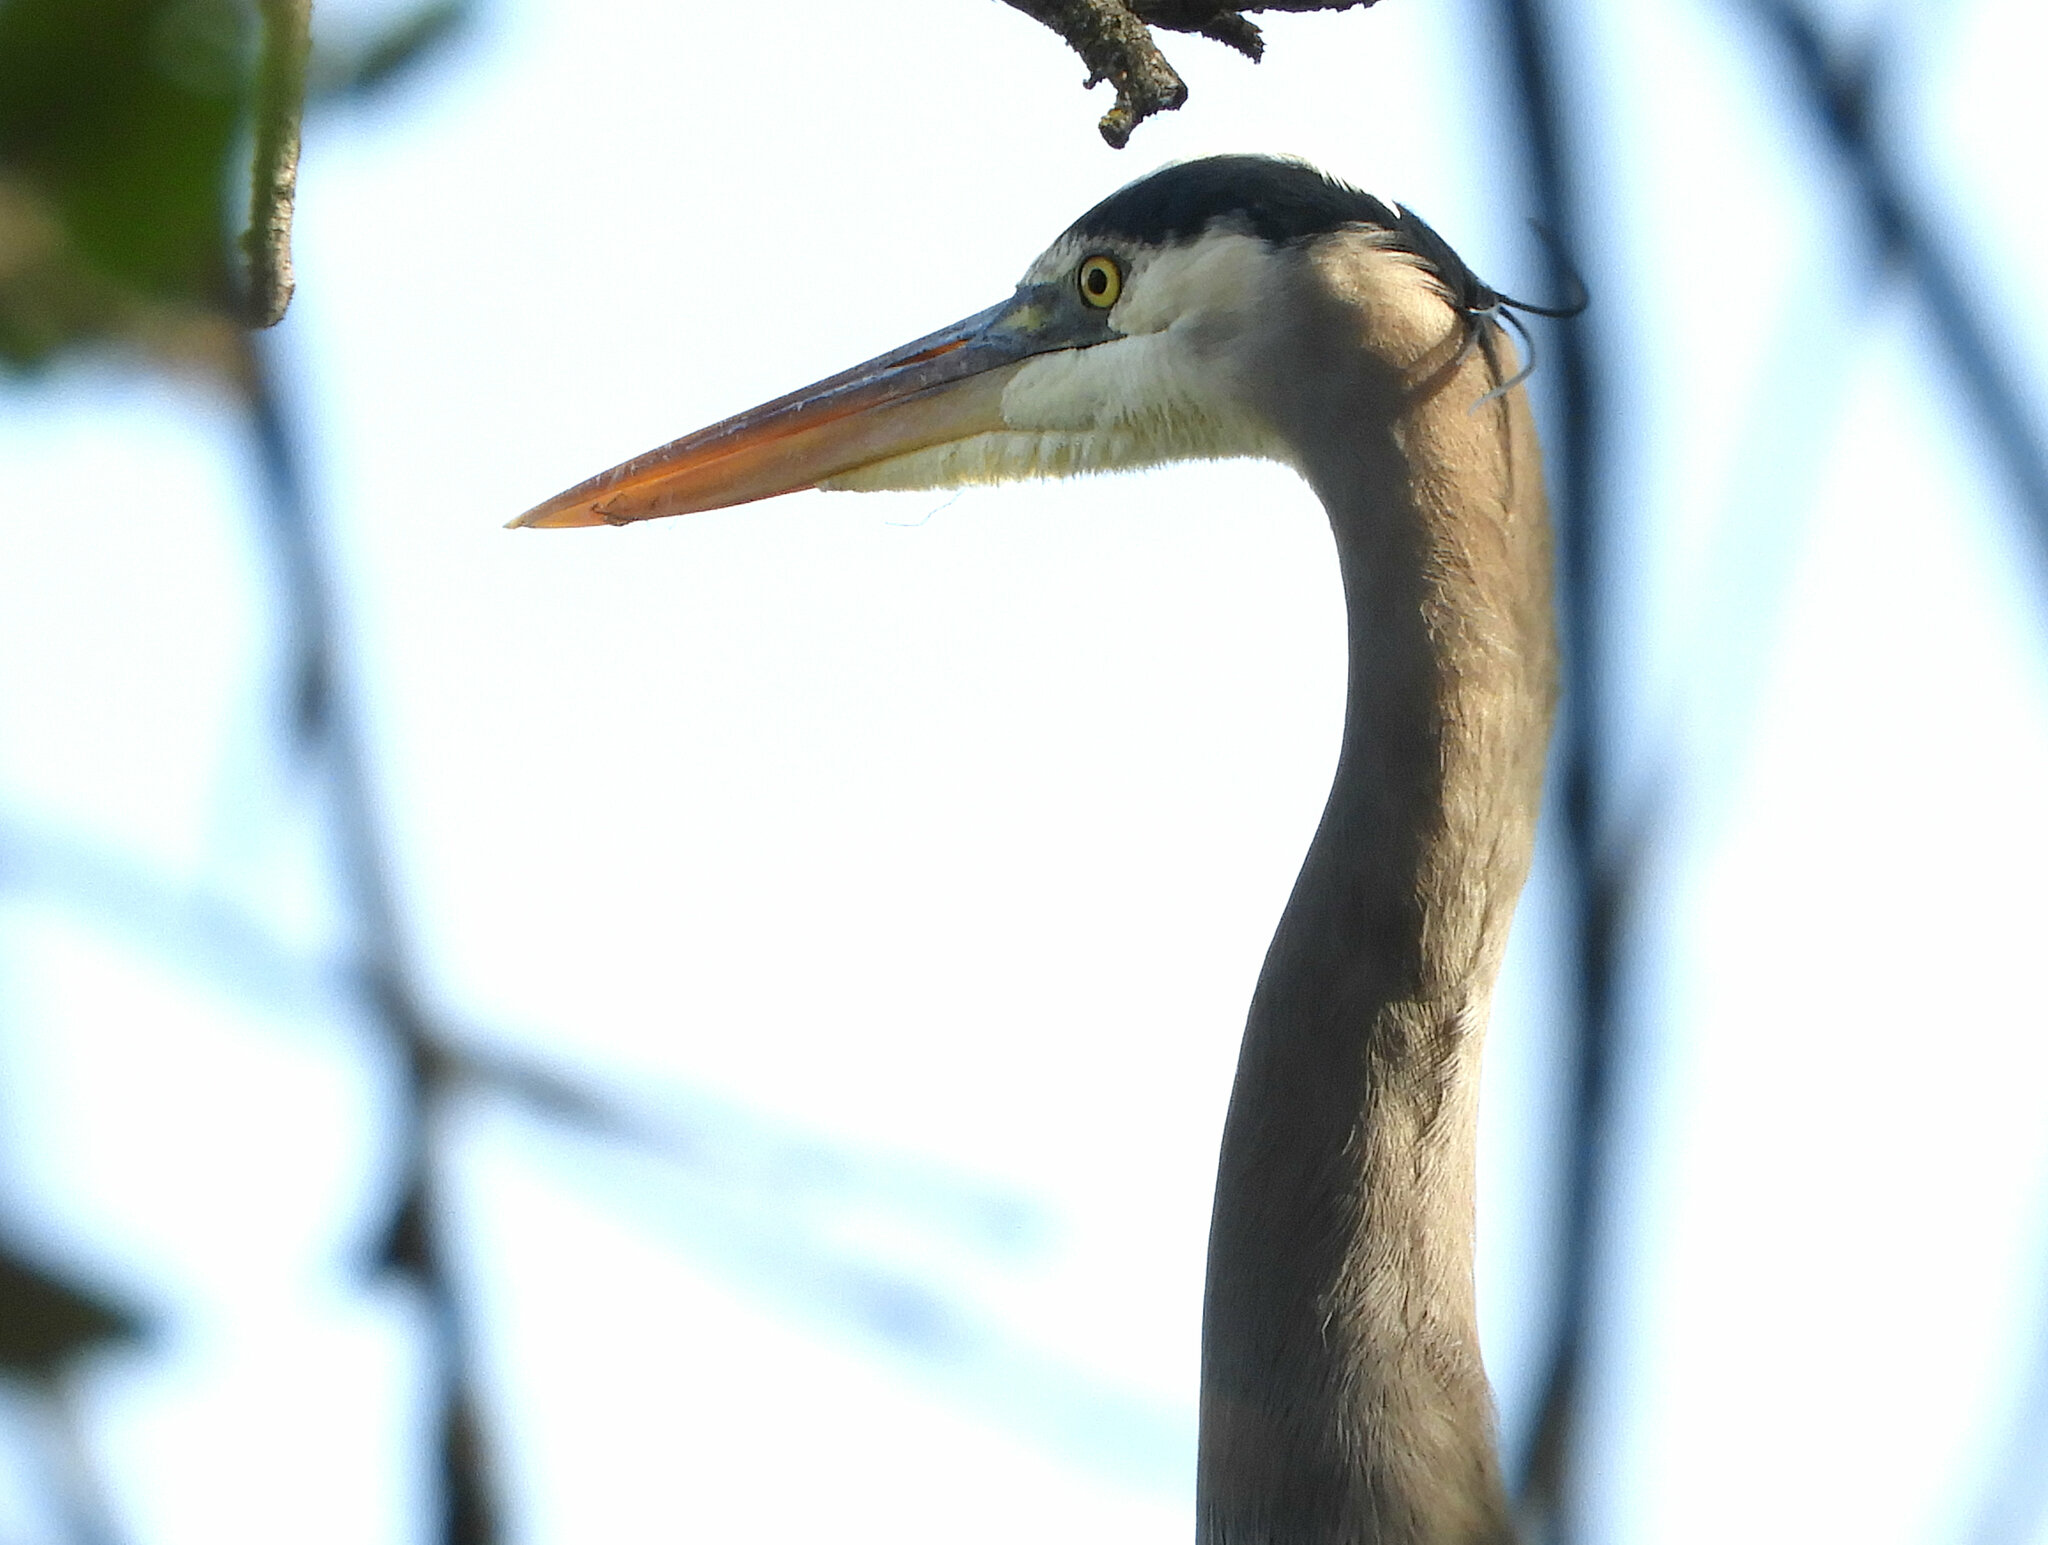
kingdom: Animalia
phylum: Chordata
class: Aves
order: Pelecaniformes
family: Ardeidae
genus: Ardea
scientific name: Ardea herodias
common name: Great blue heron
